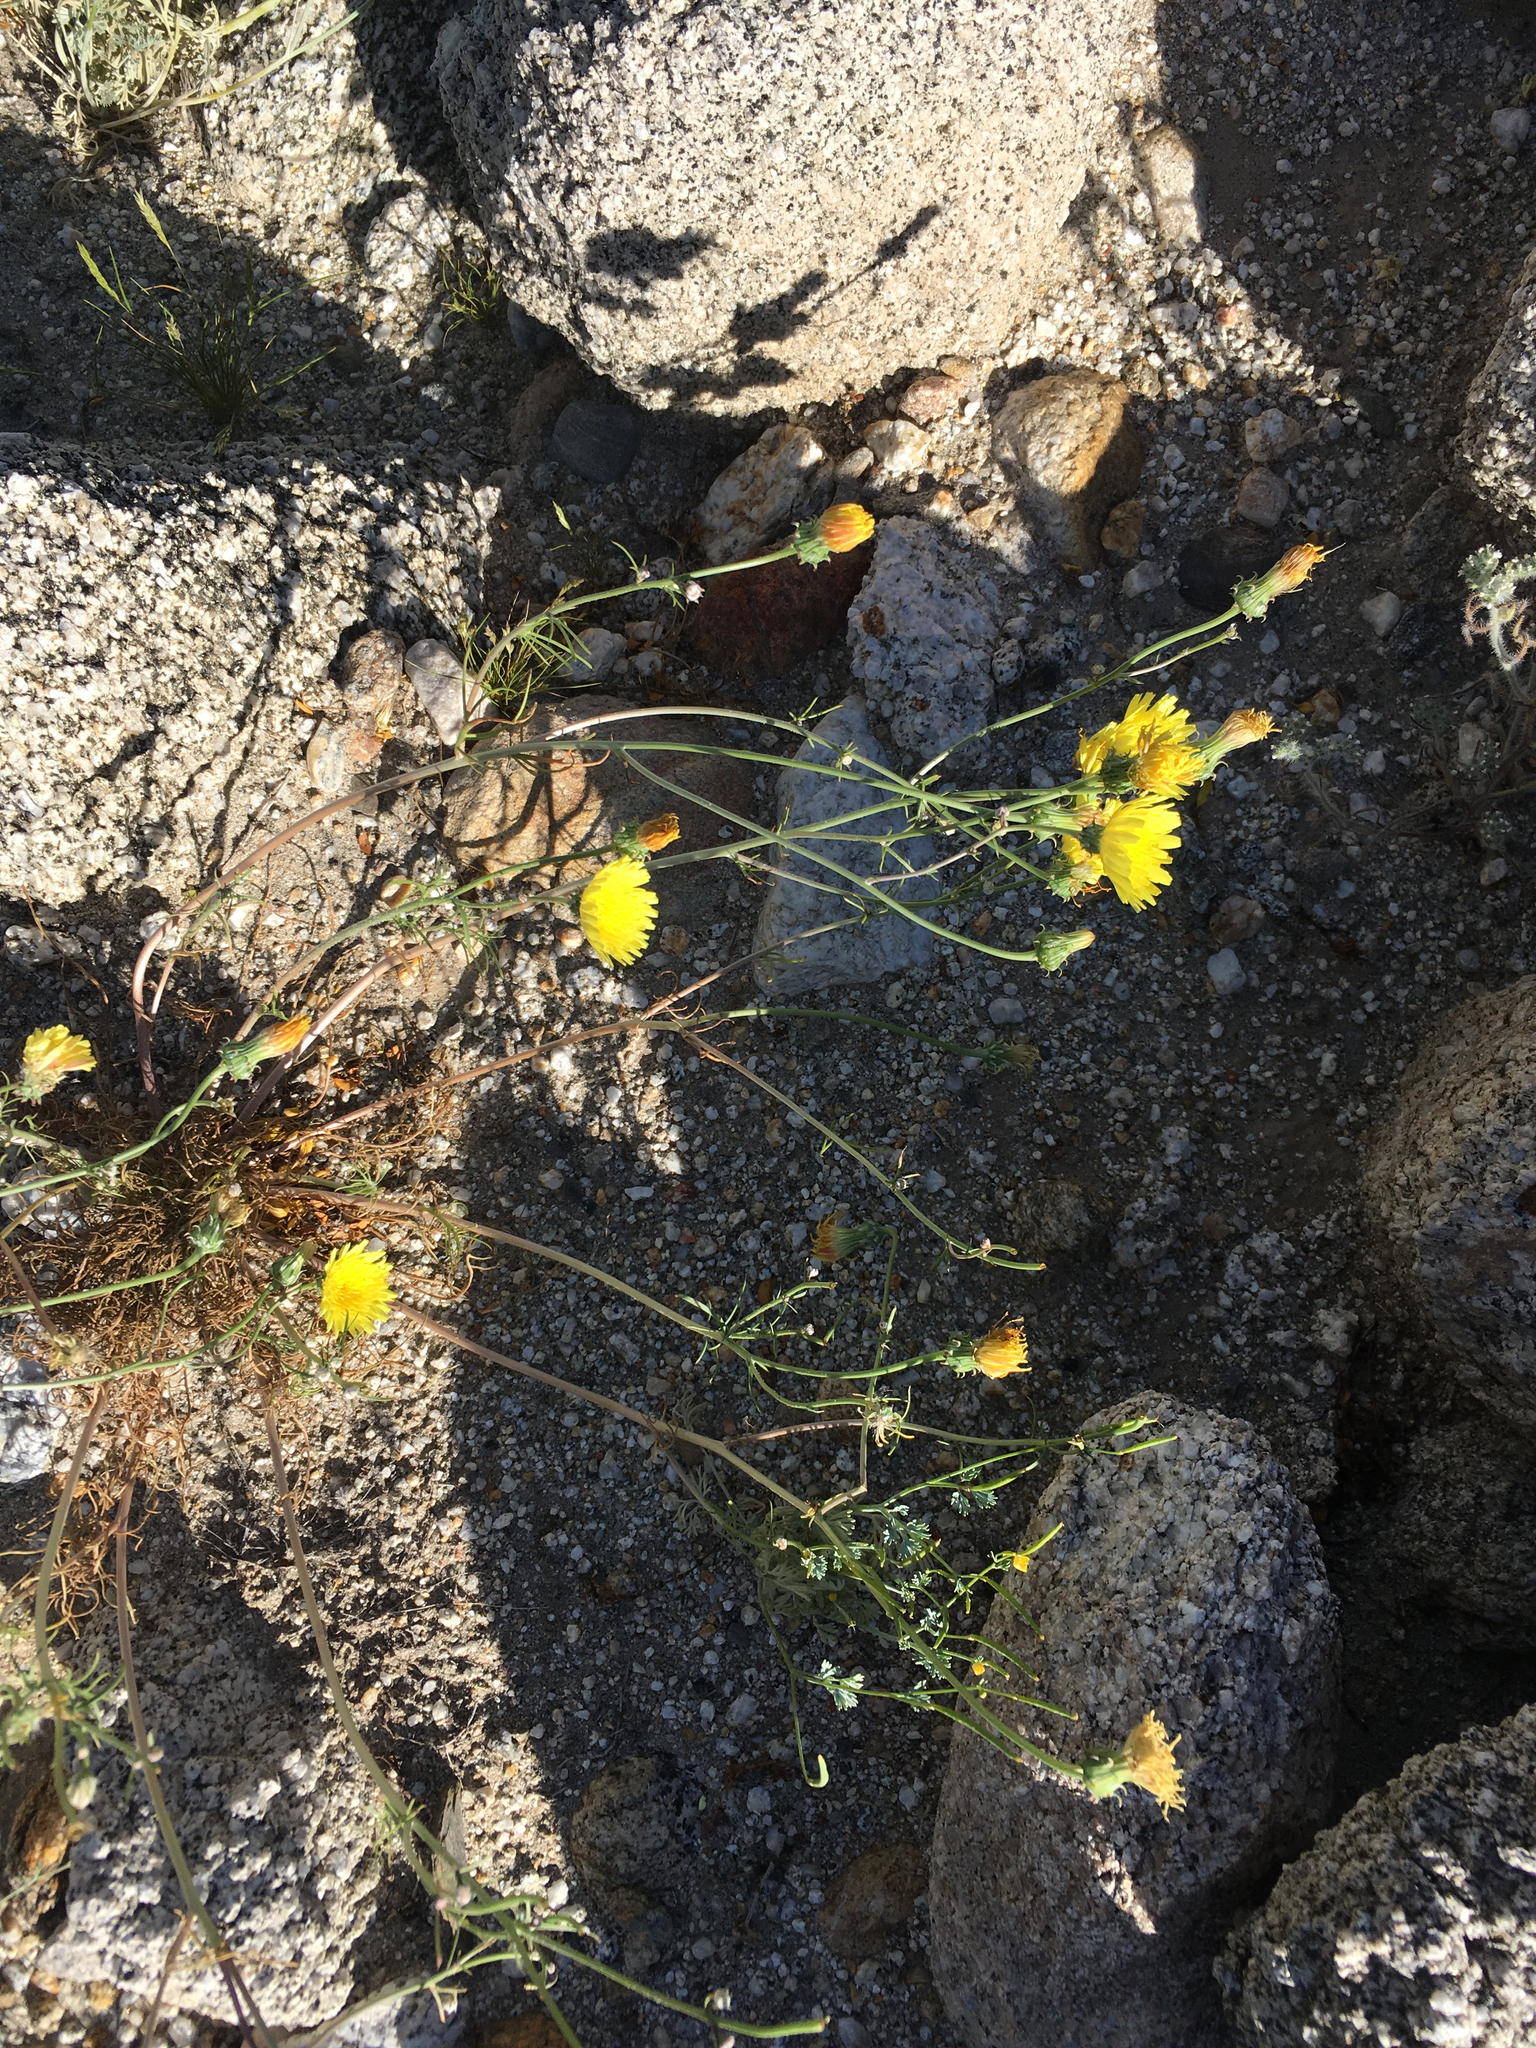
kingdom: Plantae
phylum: Tracheophyta
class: Magnoliopsida
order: Asterales
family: Asteraceae
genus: Malacothrix
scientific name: Malacothrix glabrata
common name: Smooth desert-dandelion
